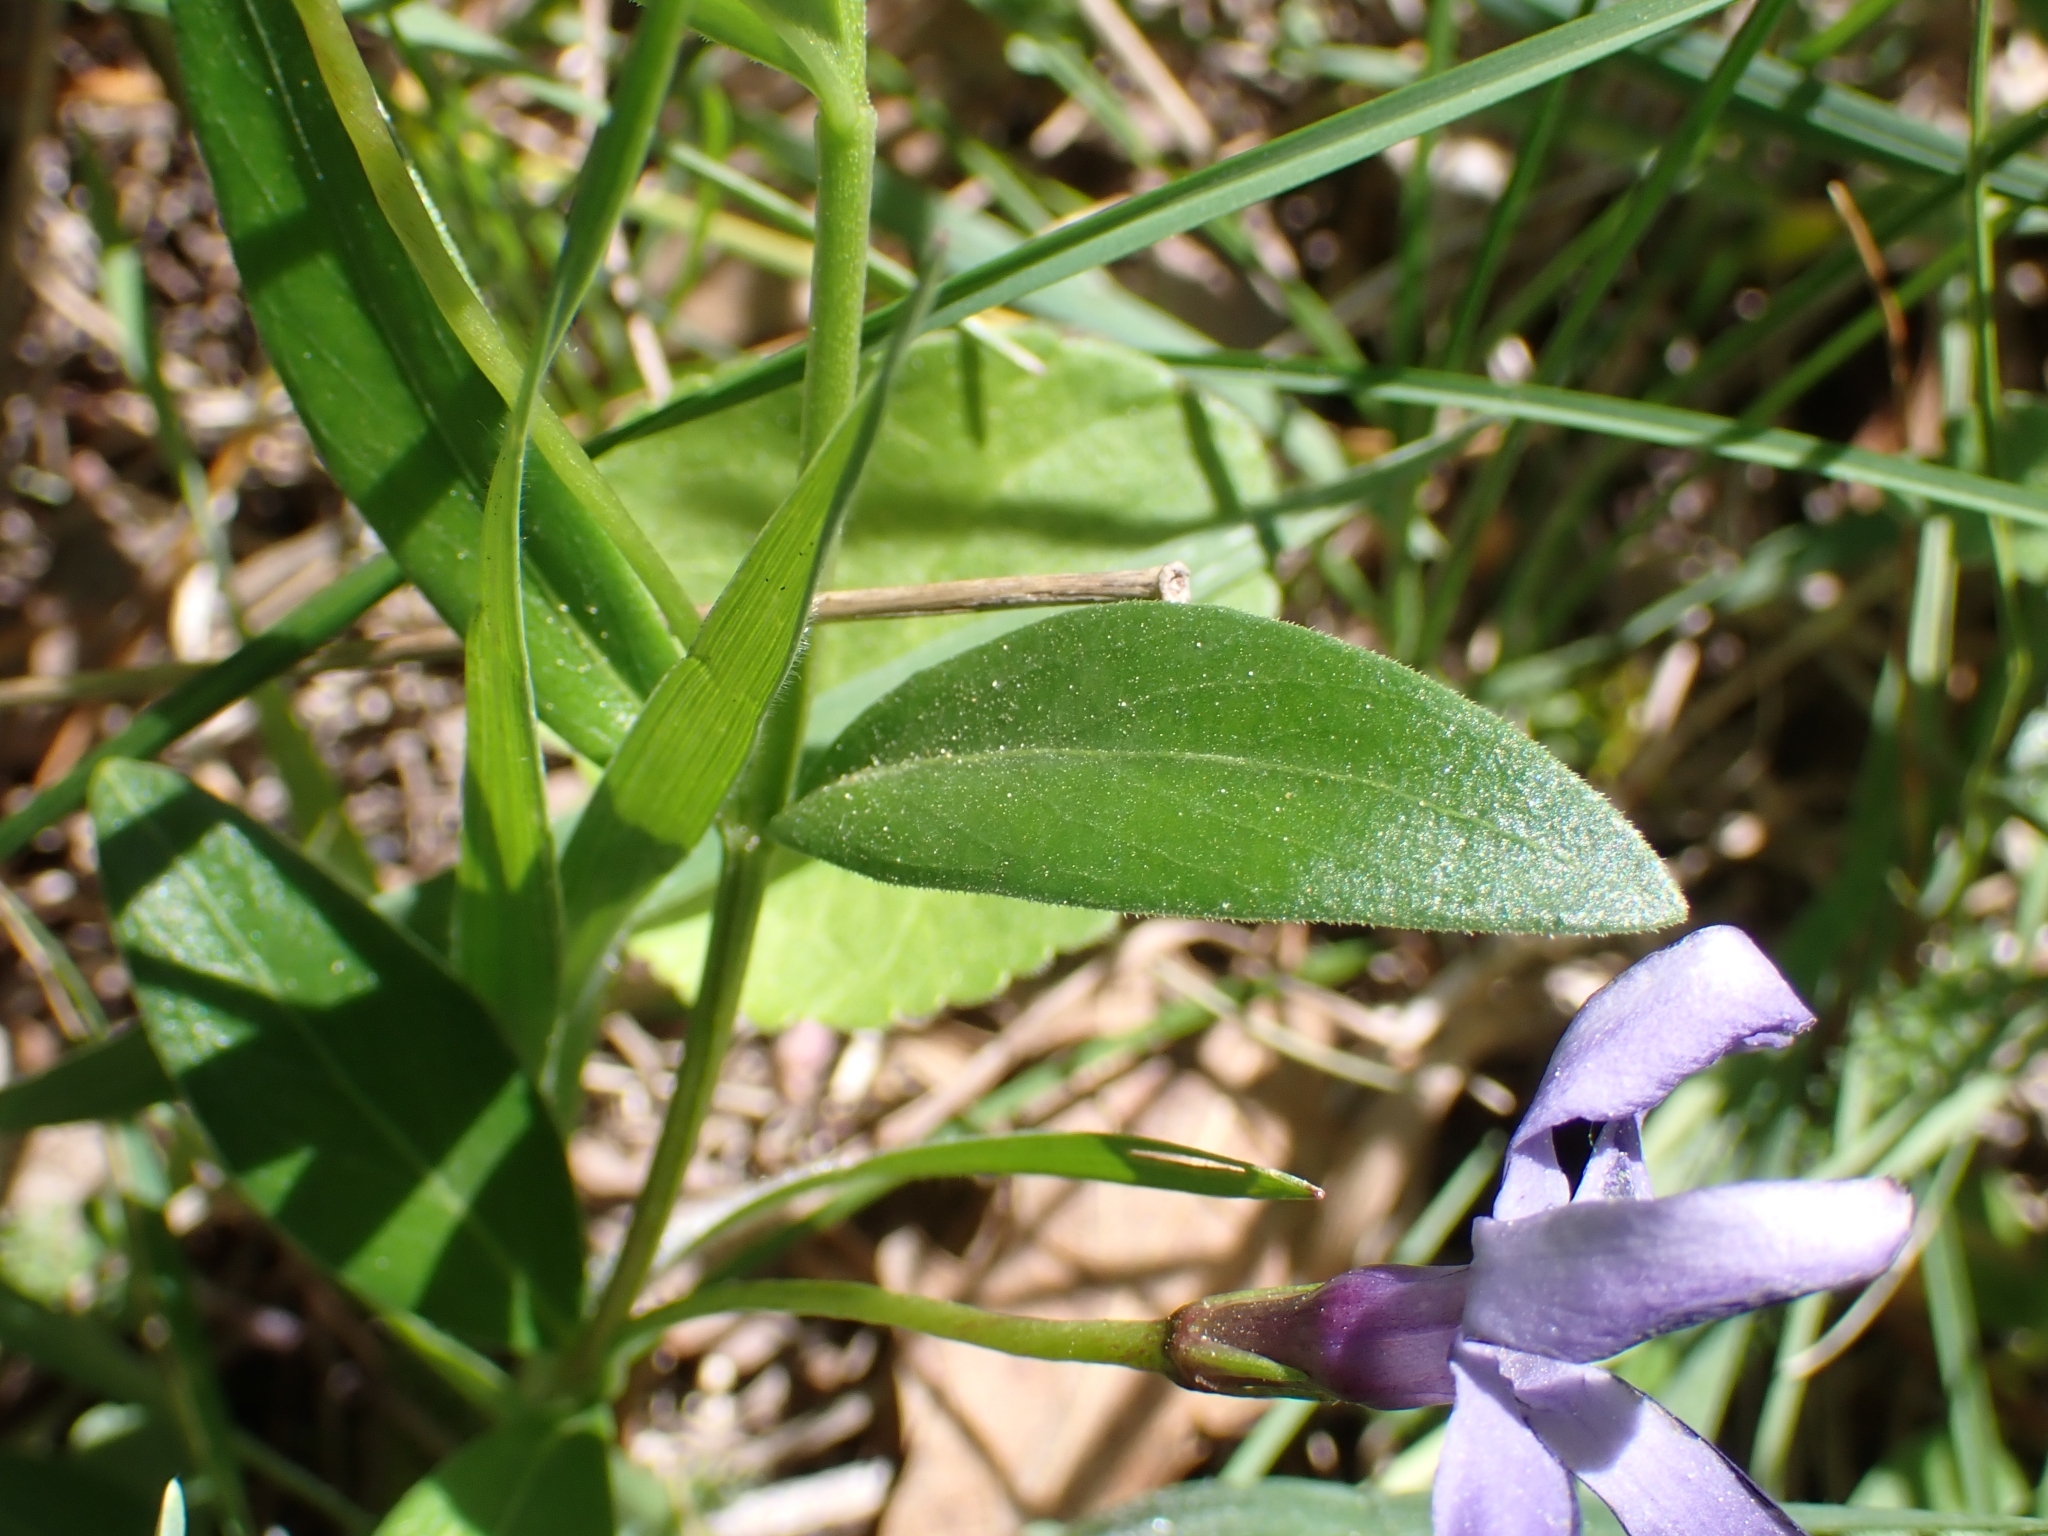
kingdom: Plantae
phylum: Tracheophyta
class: Magnoliopsida
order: Gentianales
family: Apocynaceae
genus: Vinca
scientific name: Vinca herbacea
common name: Herbaceous periwinkle
